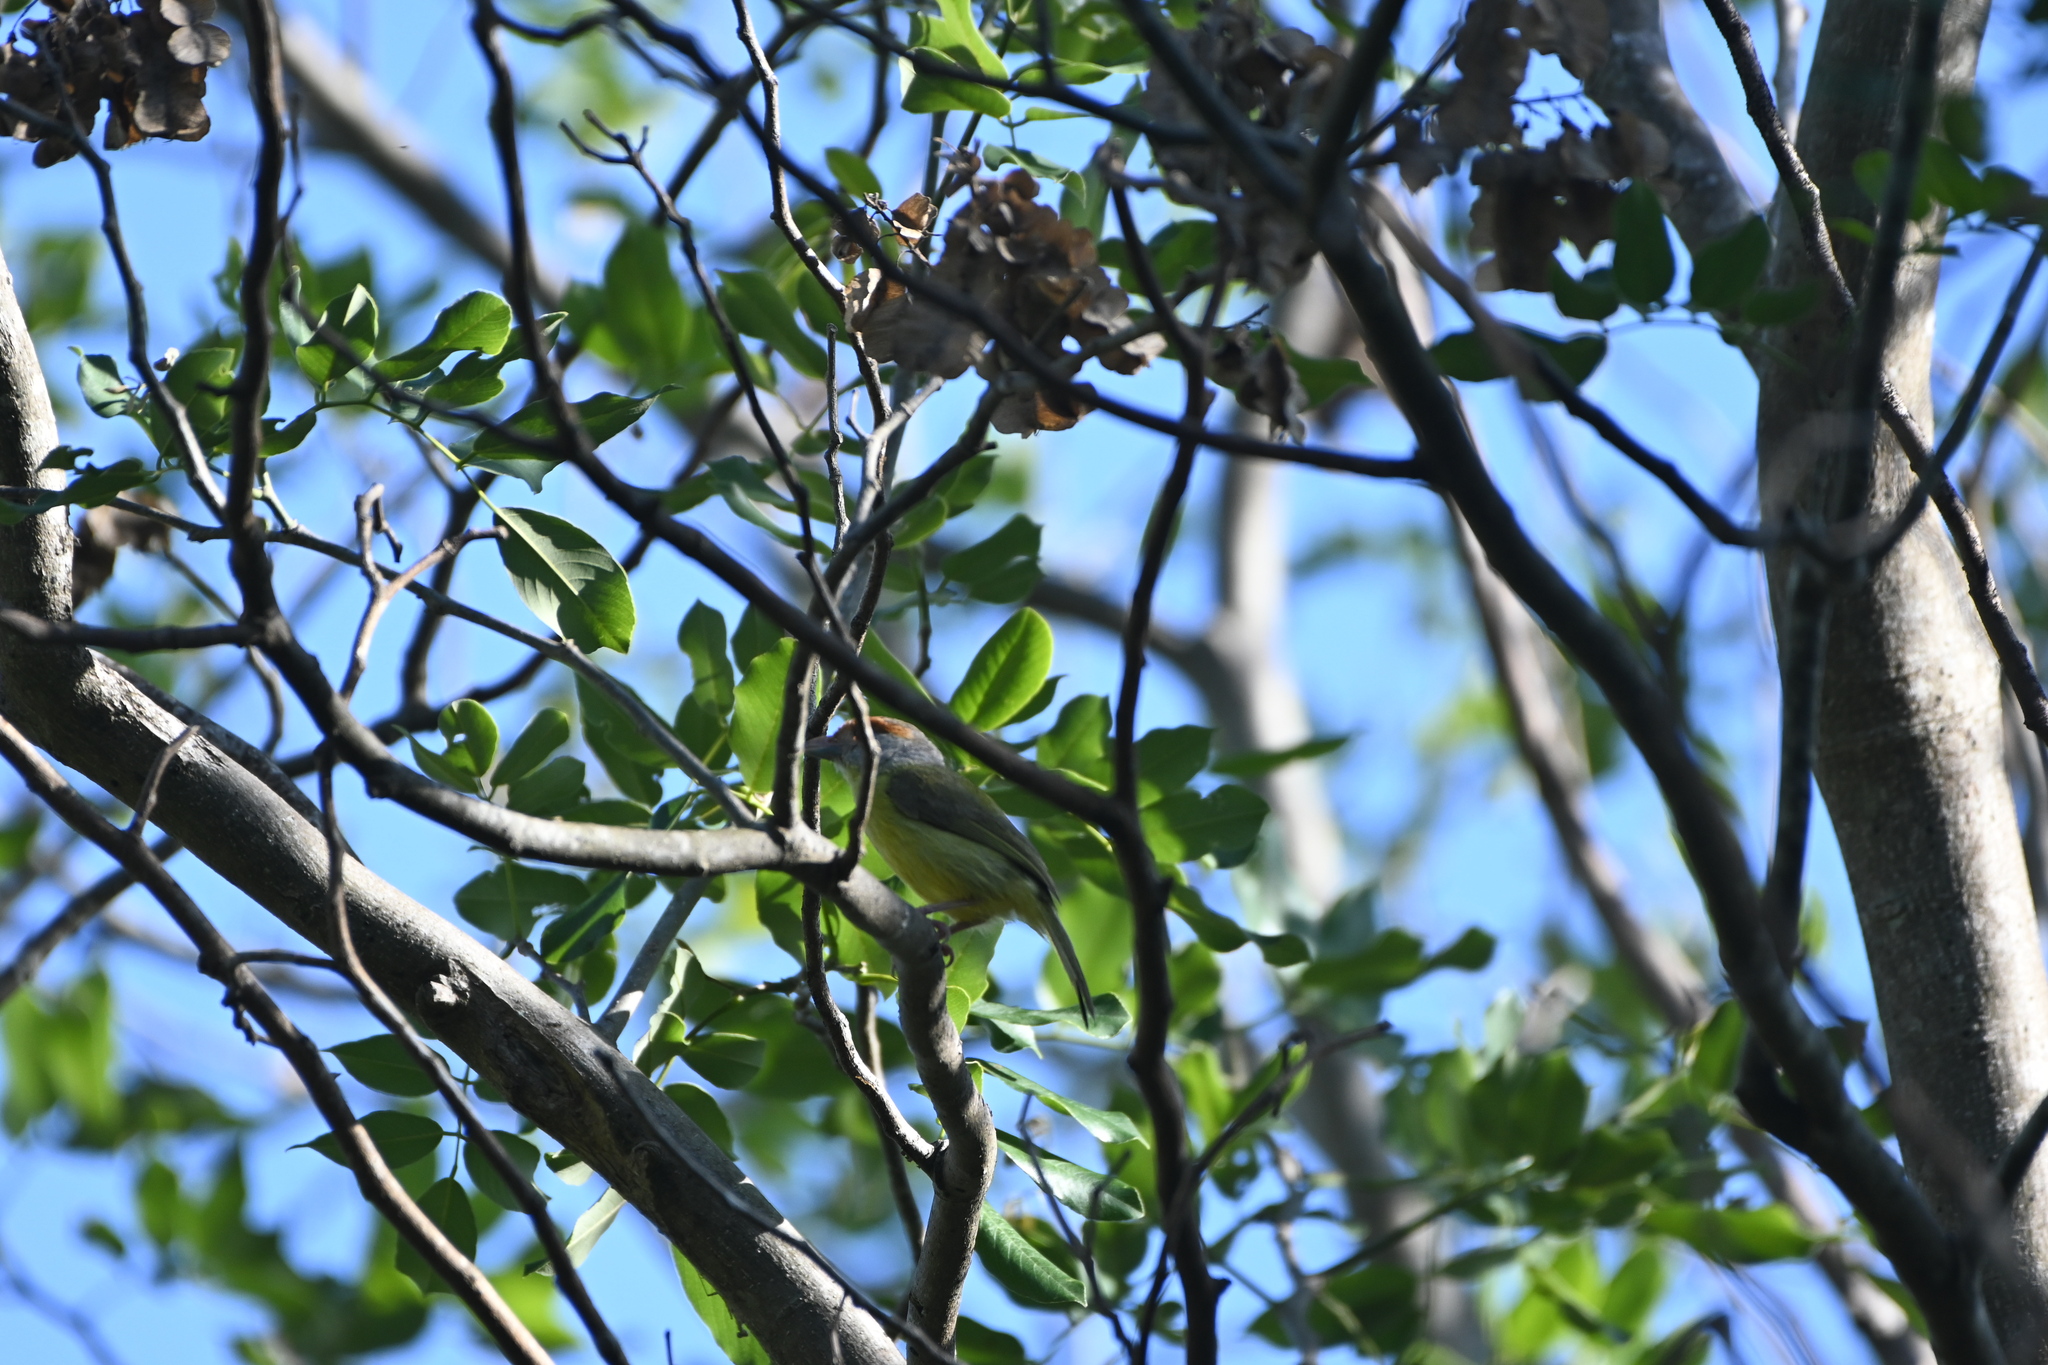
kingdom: Animalia
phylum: Chordata
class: Aves
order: Passeriformes
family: Vireonidae
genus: Cyclarhis
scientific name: Cyclarhis gujanensis
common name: Rufous-browed peppershrike
